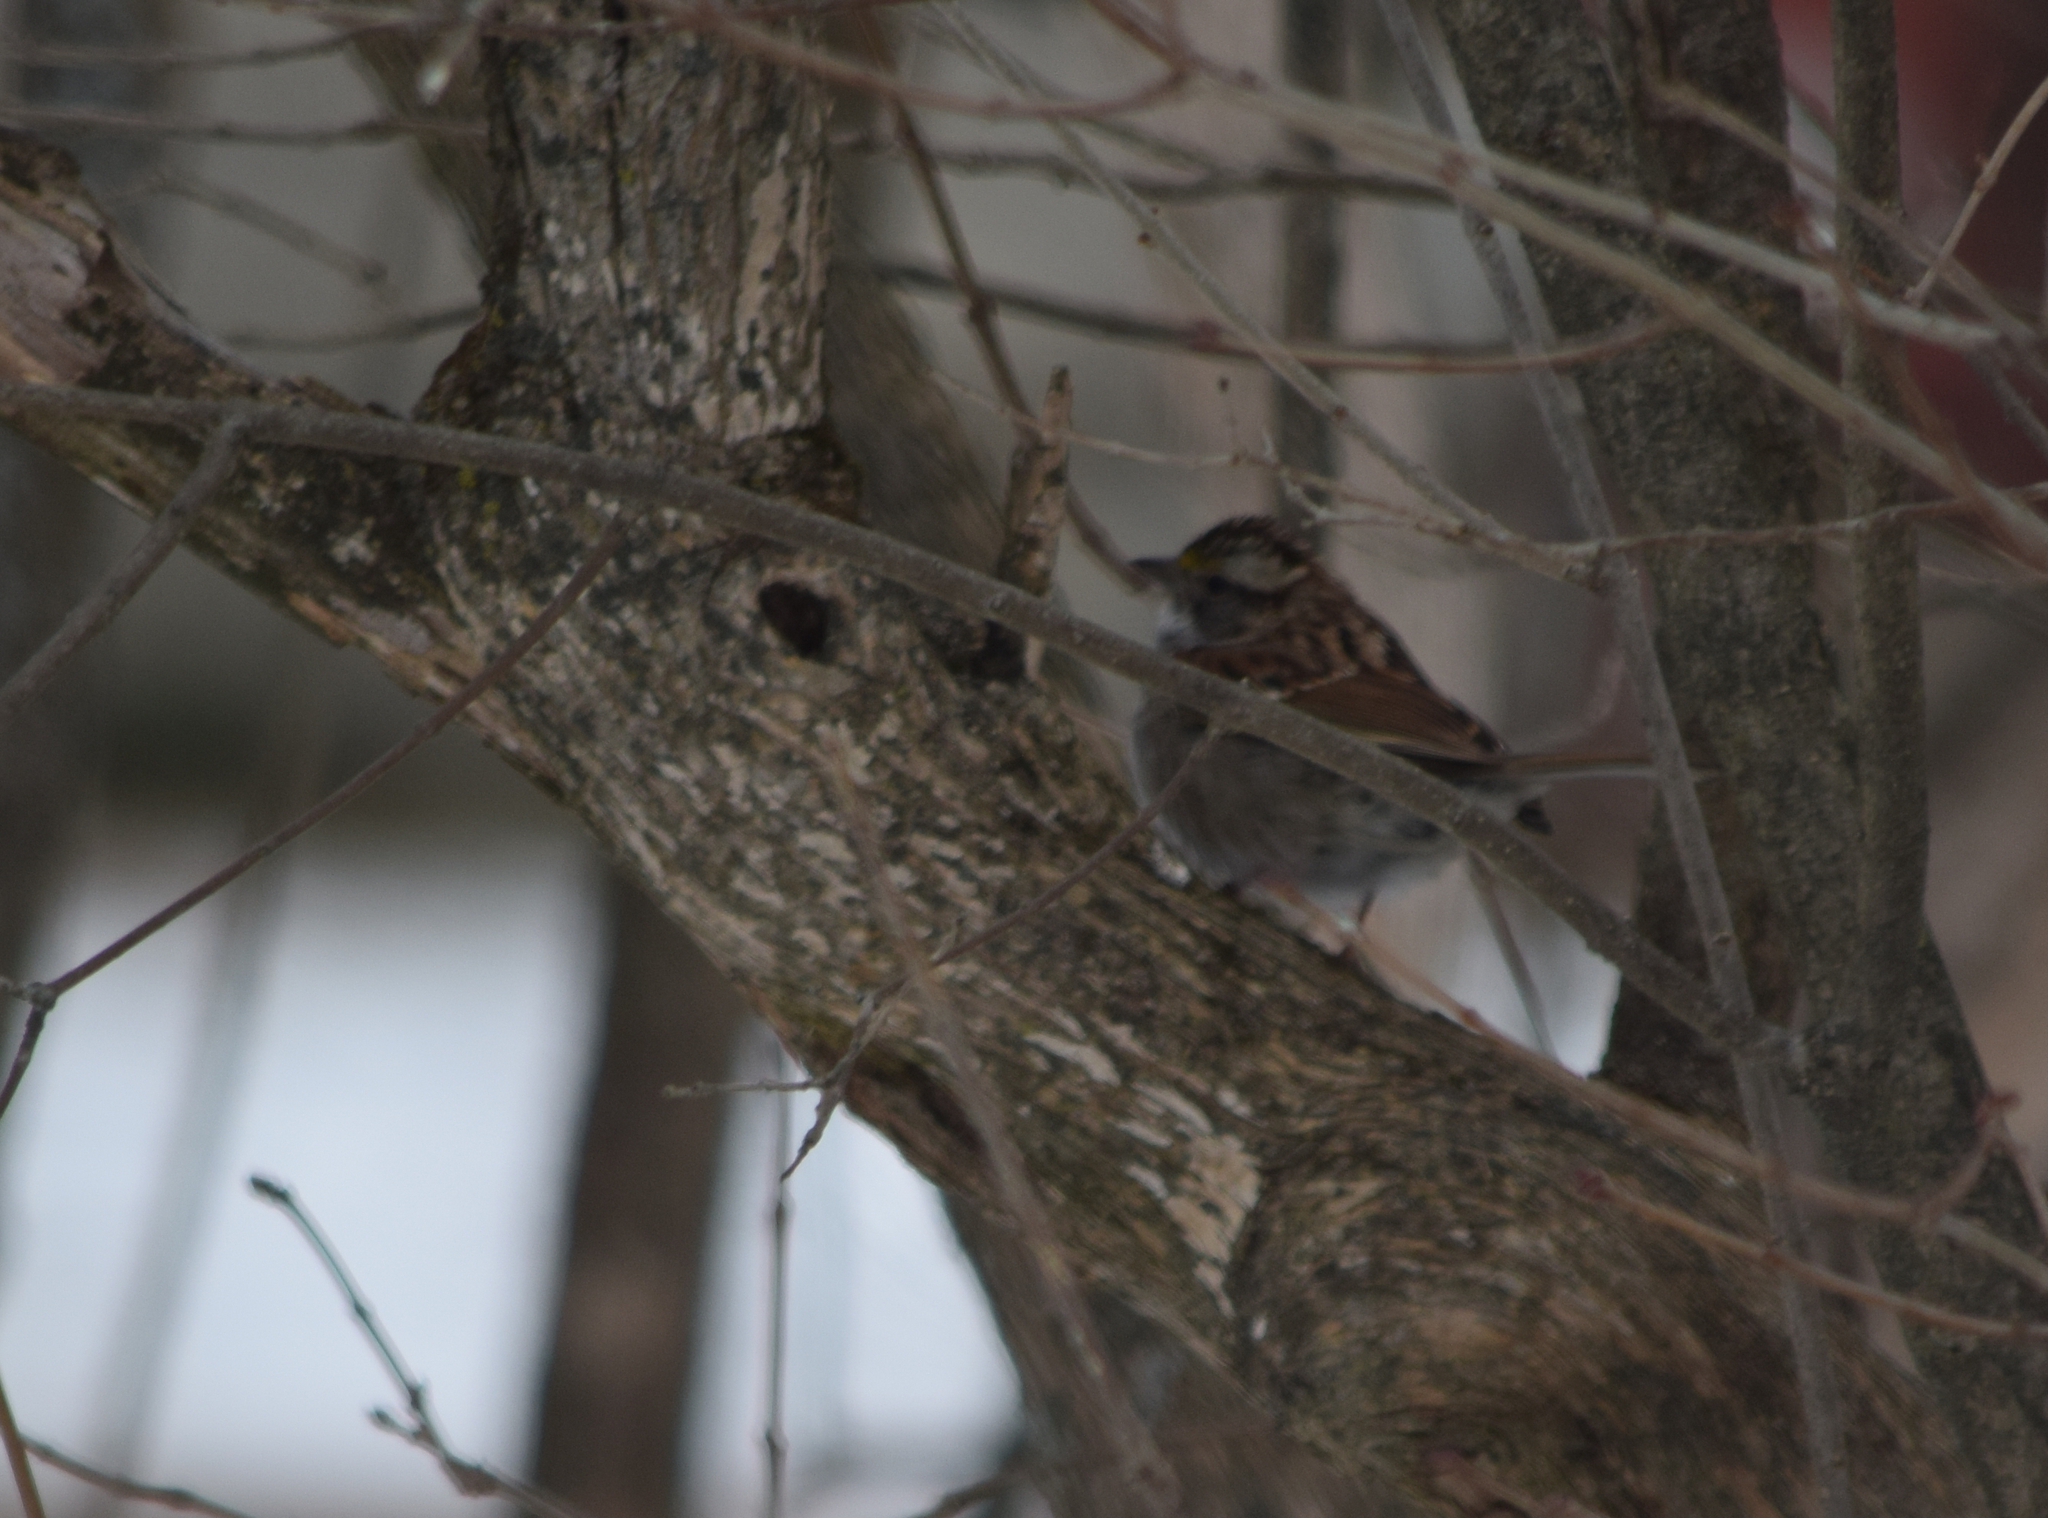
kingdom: Animalia
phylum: Chordata
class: Aves
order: Passeriformes
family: Passerellidae
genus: Zonotrichia
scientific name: Zonotrichia albicollis
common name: White-throated sparrow
